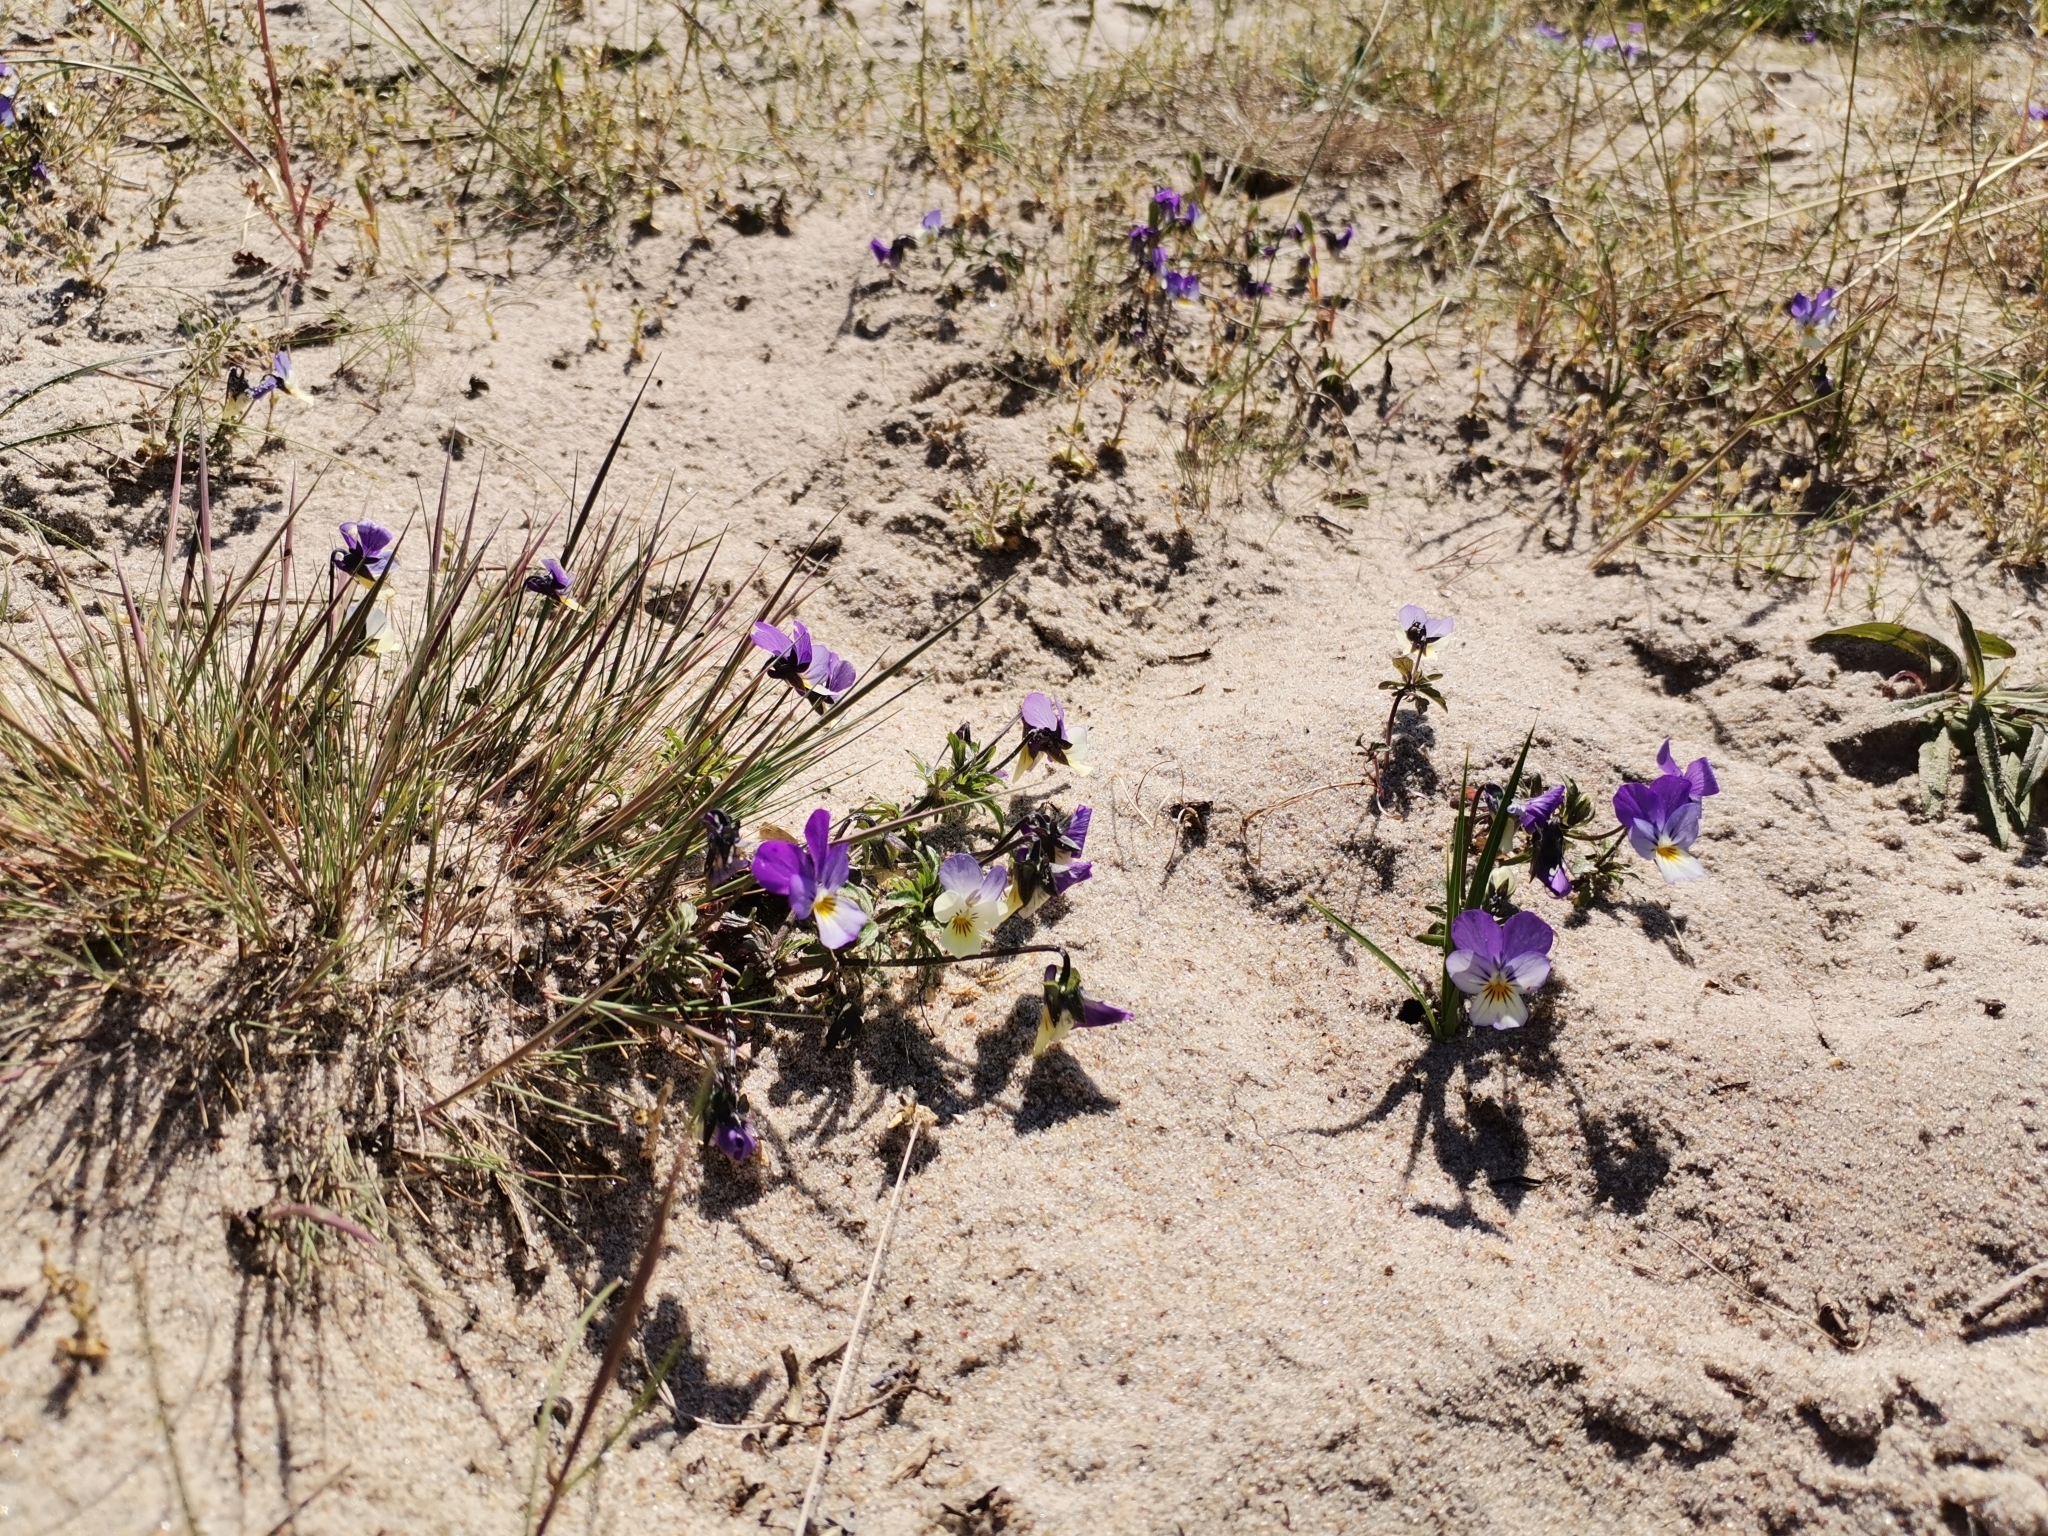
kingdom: Plantae
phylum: Tracheophyta
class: Magnoliopsida
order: Malpighiales
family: Violaceae
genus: Viola
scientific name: Viola tricolor
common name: Pansy
